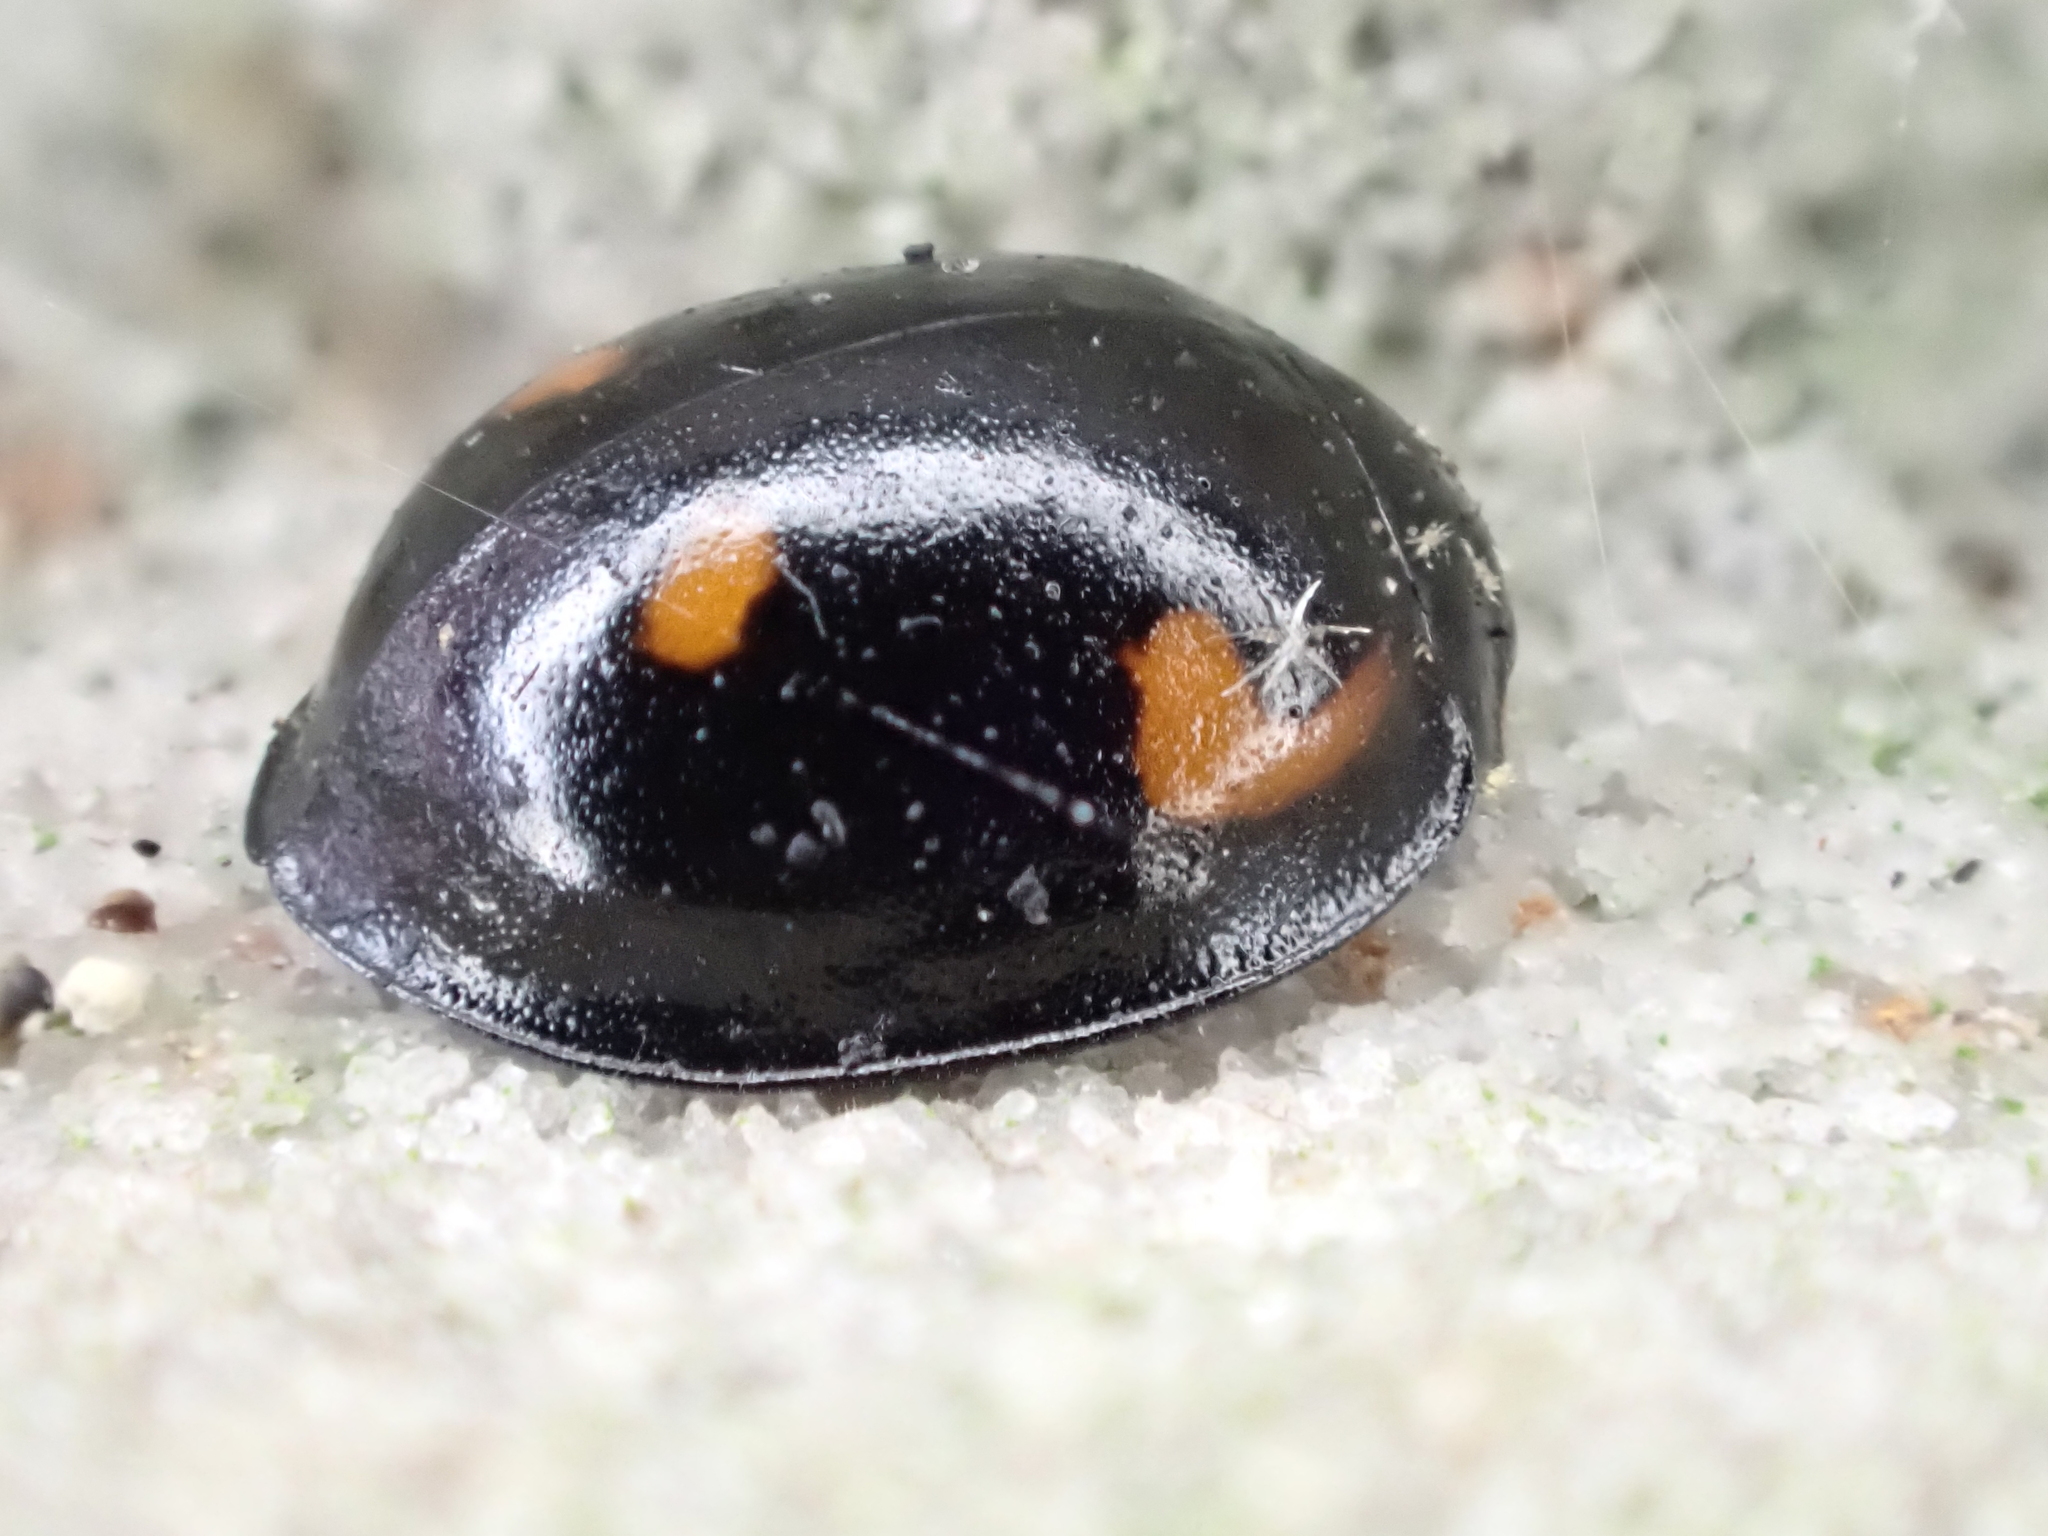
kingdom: Animalia
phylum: Arthropoda
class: Insecta
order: Coleoptera
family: Coccinellidae
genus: Brumus
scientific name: Brumus quadripustulatus
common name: Ladybird beetle
